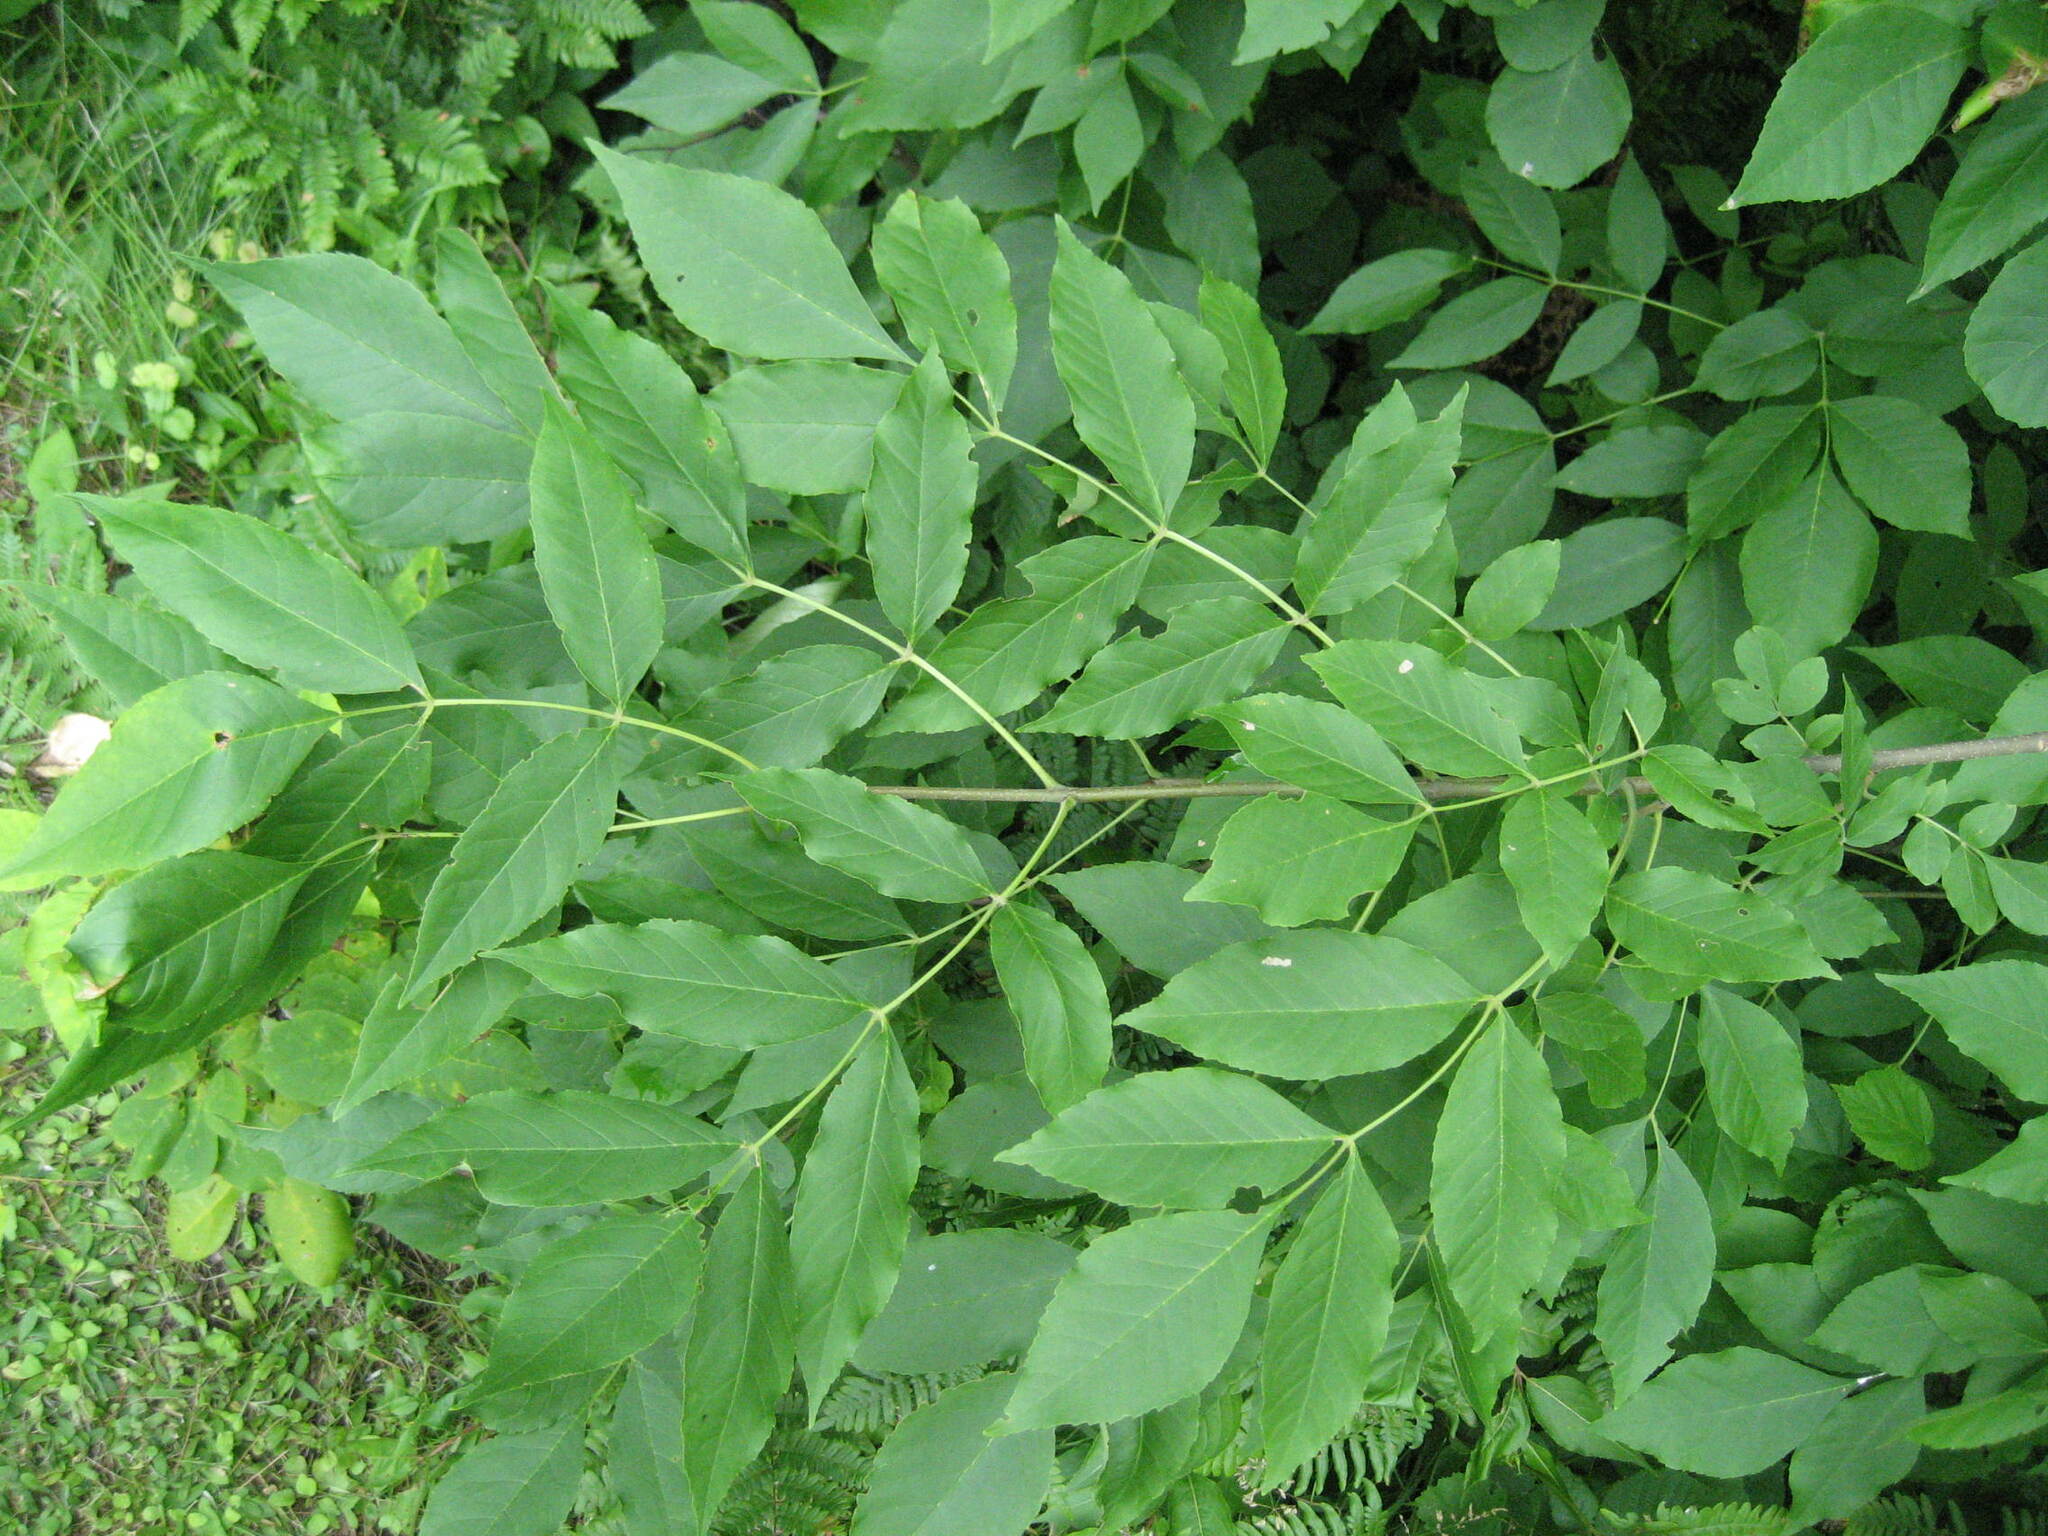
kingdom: Plantae
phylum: Tracheophyta
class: Magnoliopsida
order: Lamiales
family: Oleaceae
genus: Fraxinus
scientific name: Fraxinus pennsylvanica
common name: Green ash
